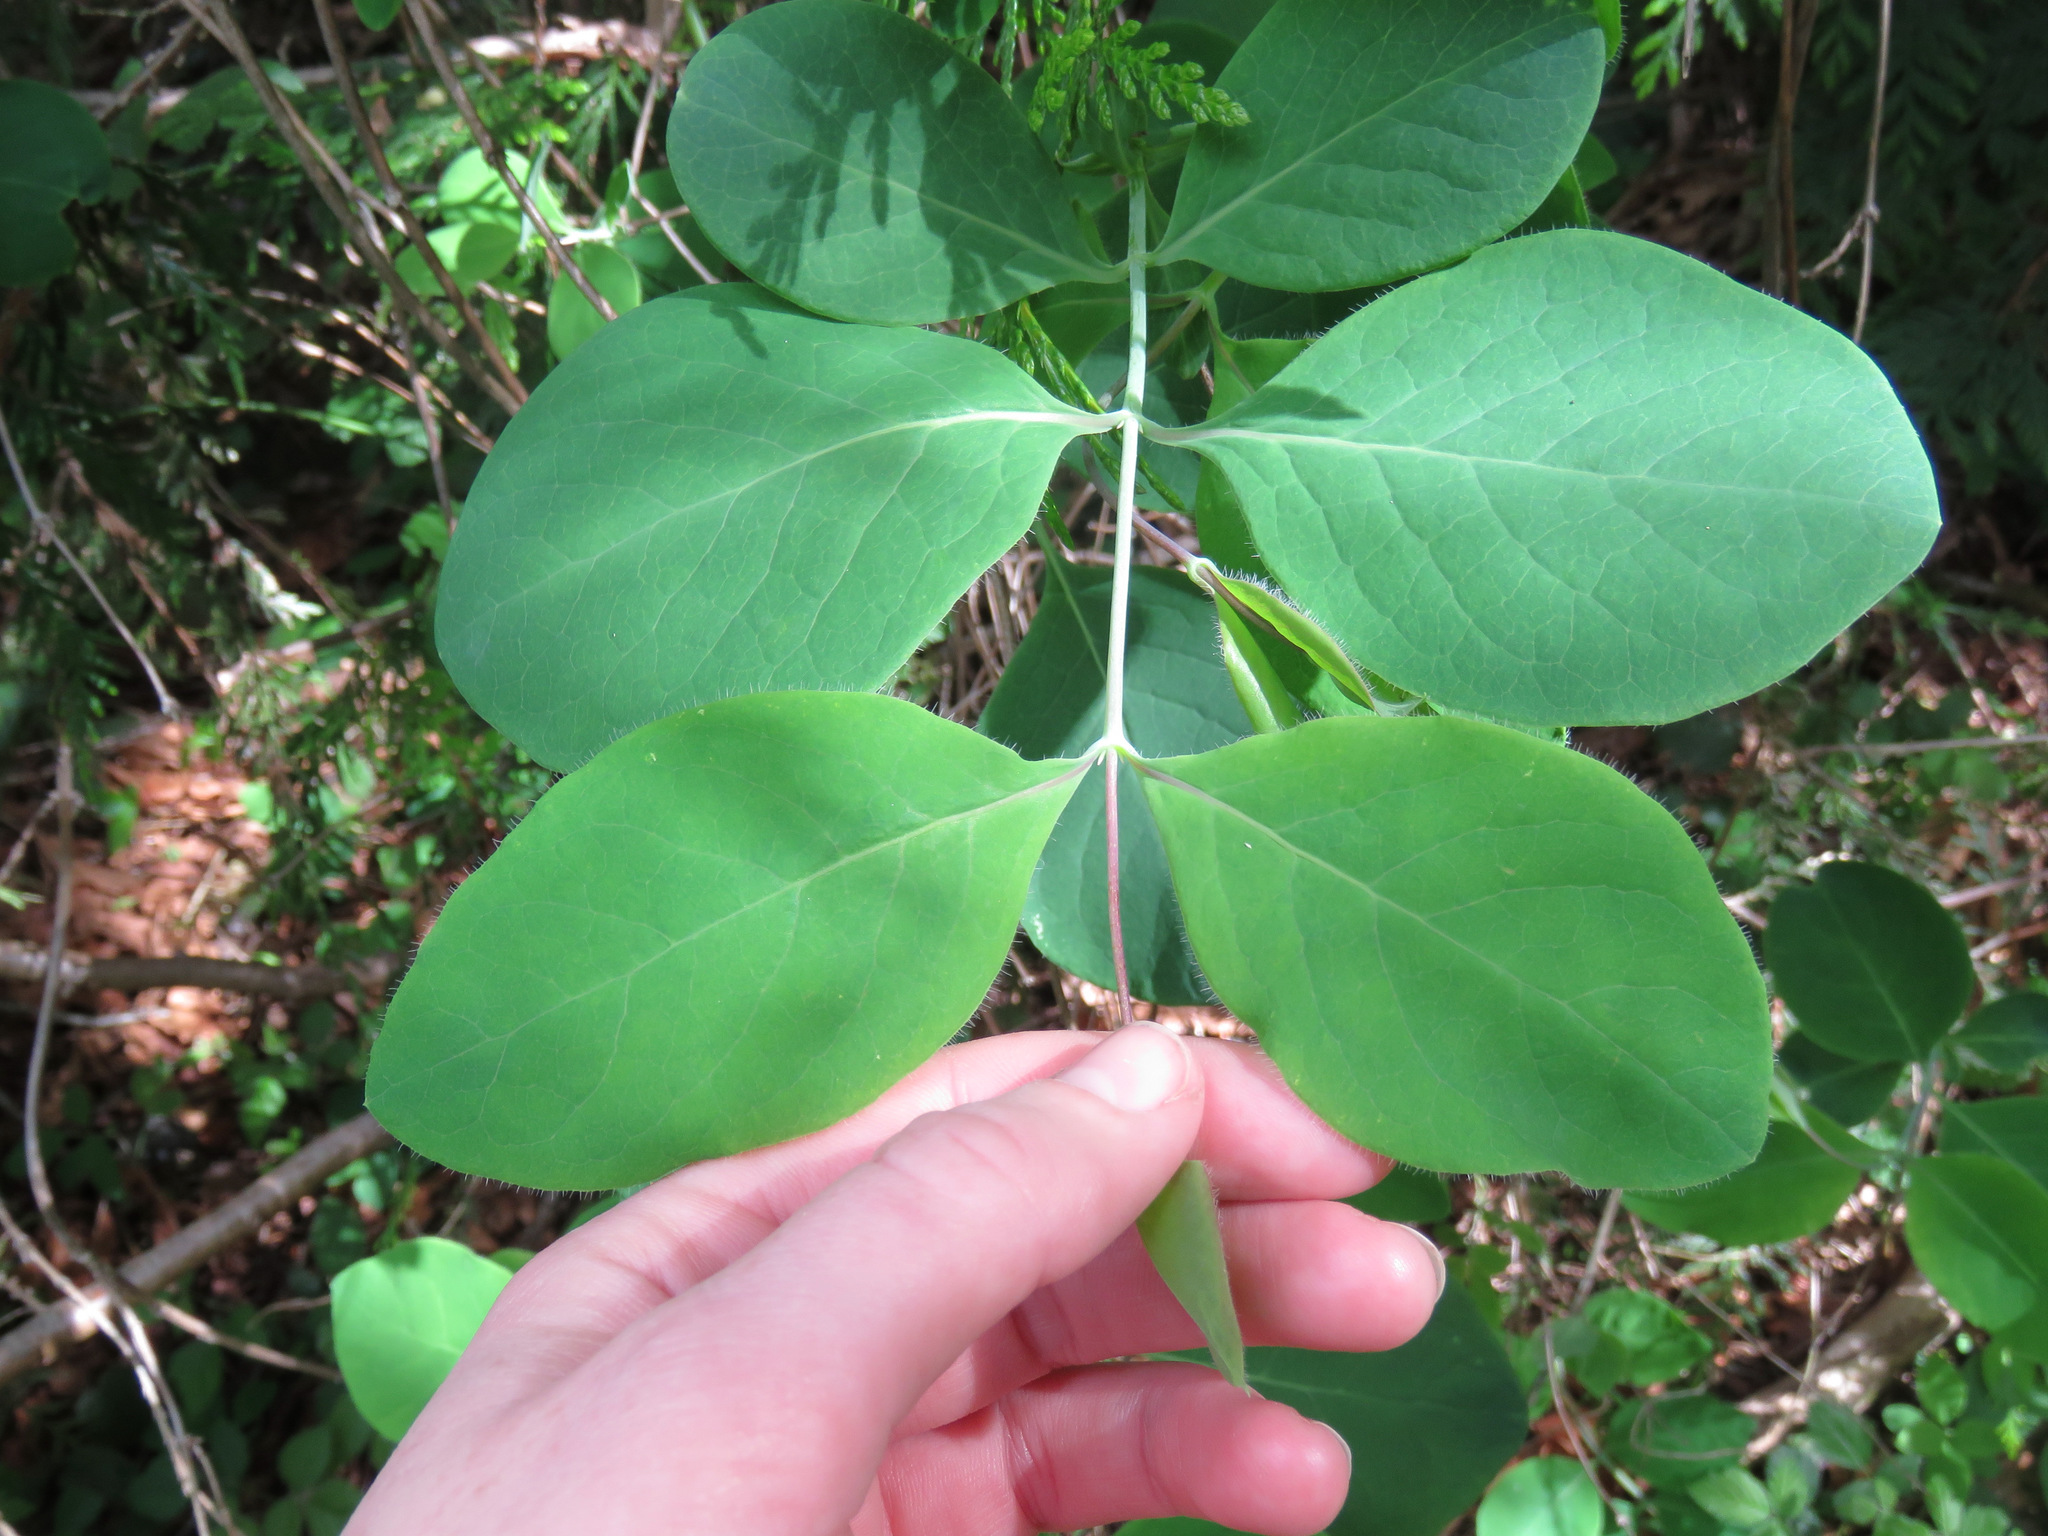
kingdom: Plantae
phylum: Tracheophyta
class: Magnoliopsida
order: Dipsacales
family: Caprifoliaceae
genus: Lonicera
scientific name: Lonicera ciliosa
